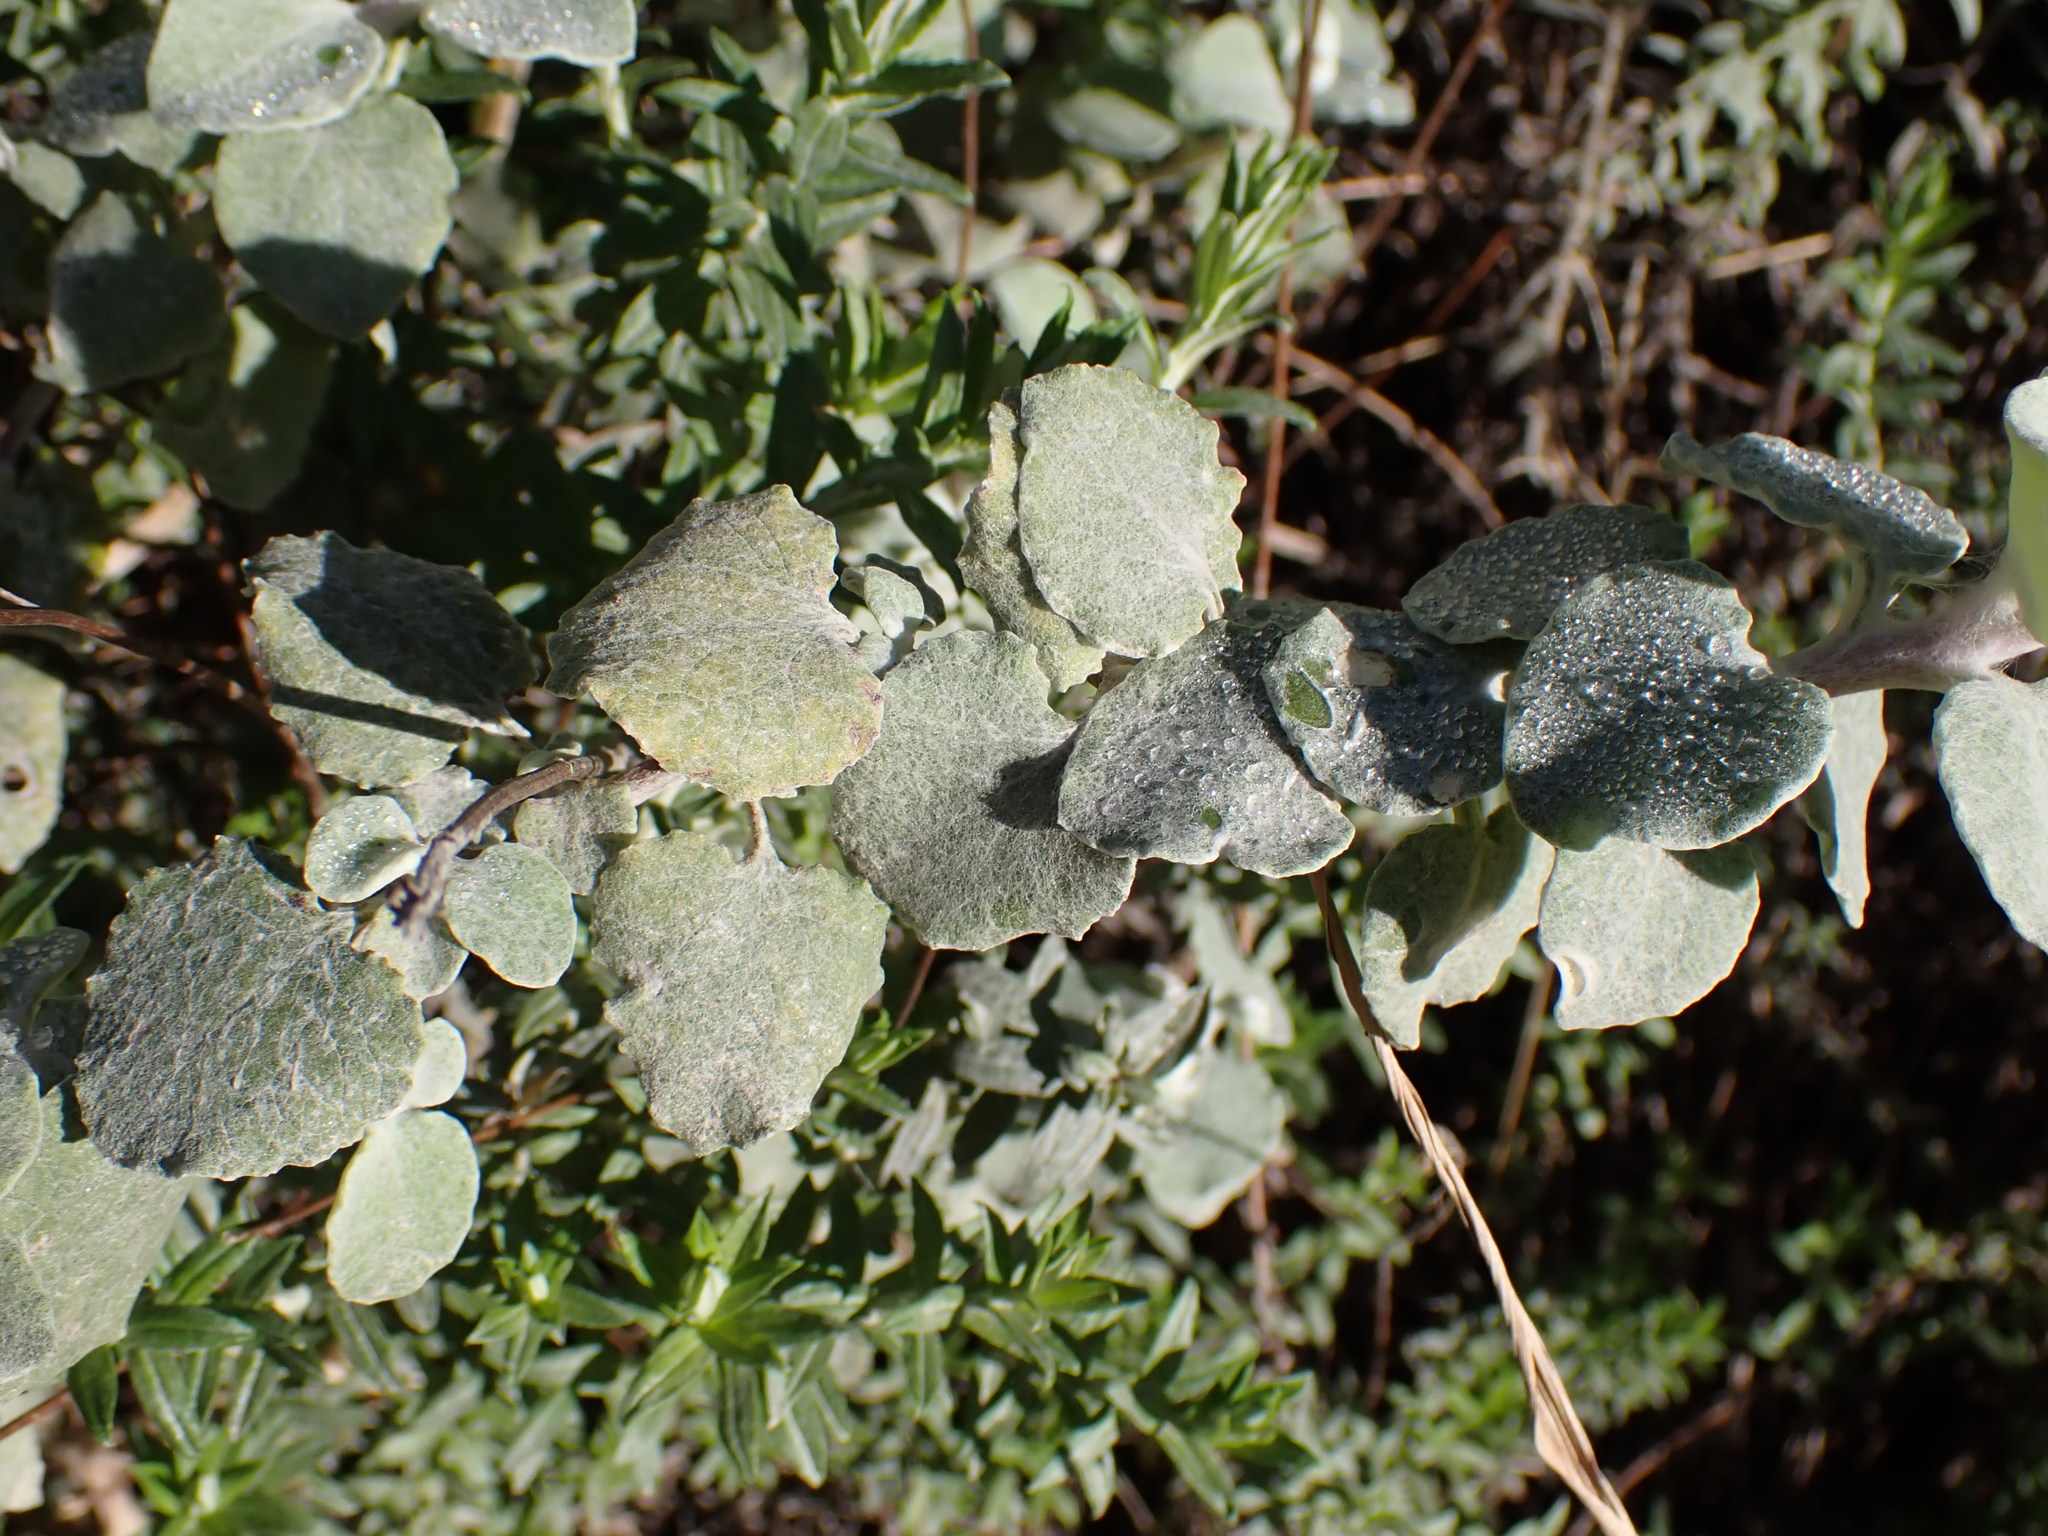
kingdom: Plantae
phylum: Tracheophyta
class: Magnoliopsida
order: Asterales
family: Asteraceae
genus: Helichrysum
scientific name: Helichrysum petiolare
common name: Licorice-plant
